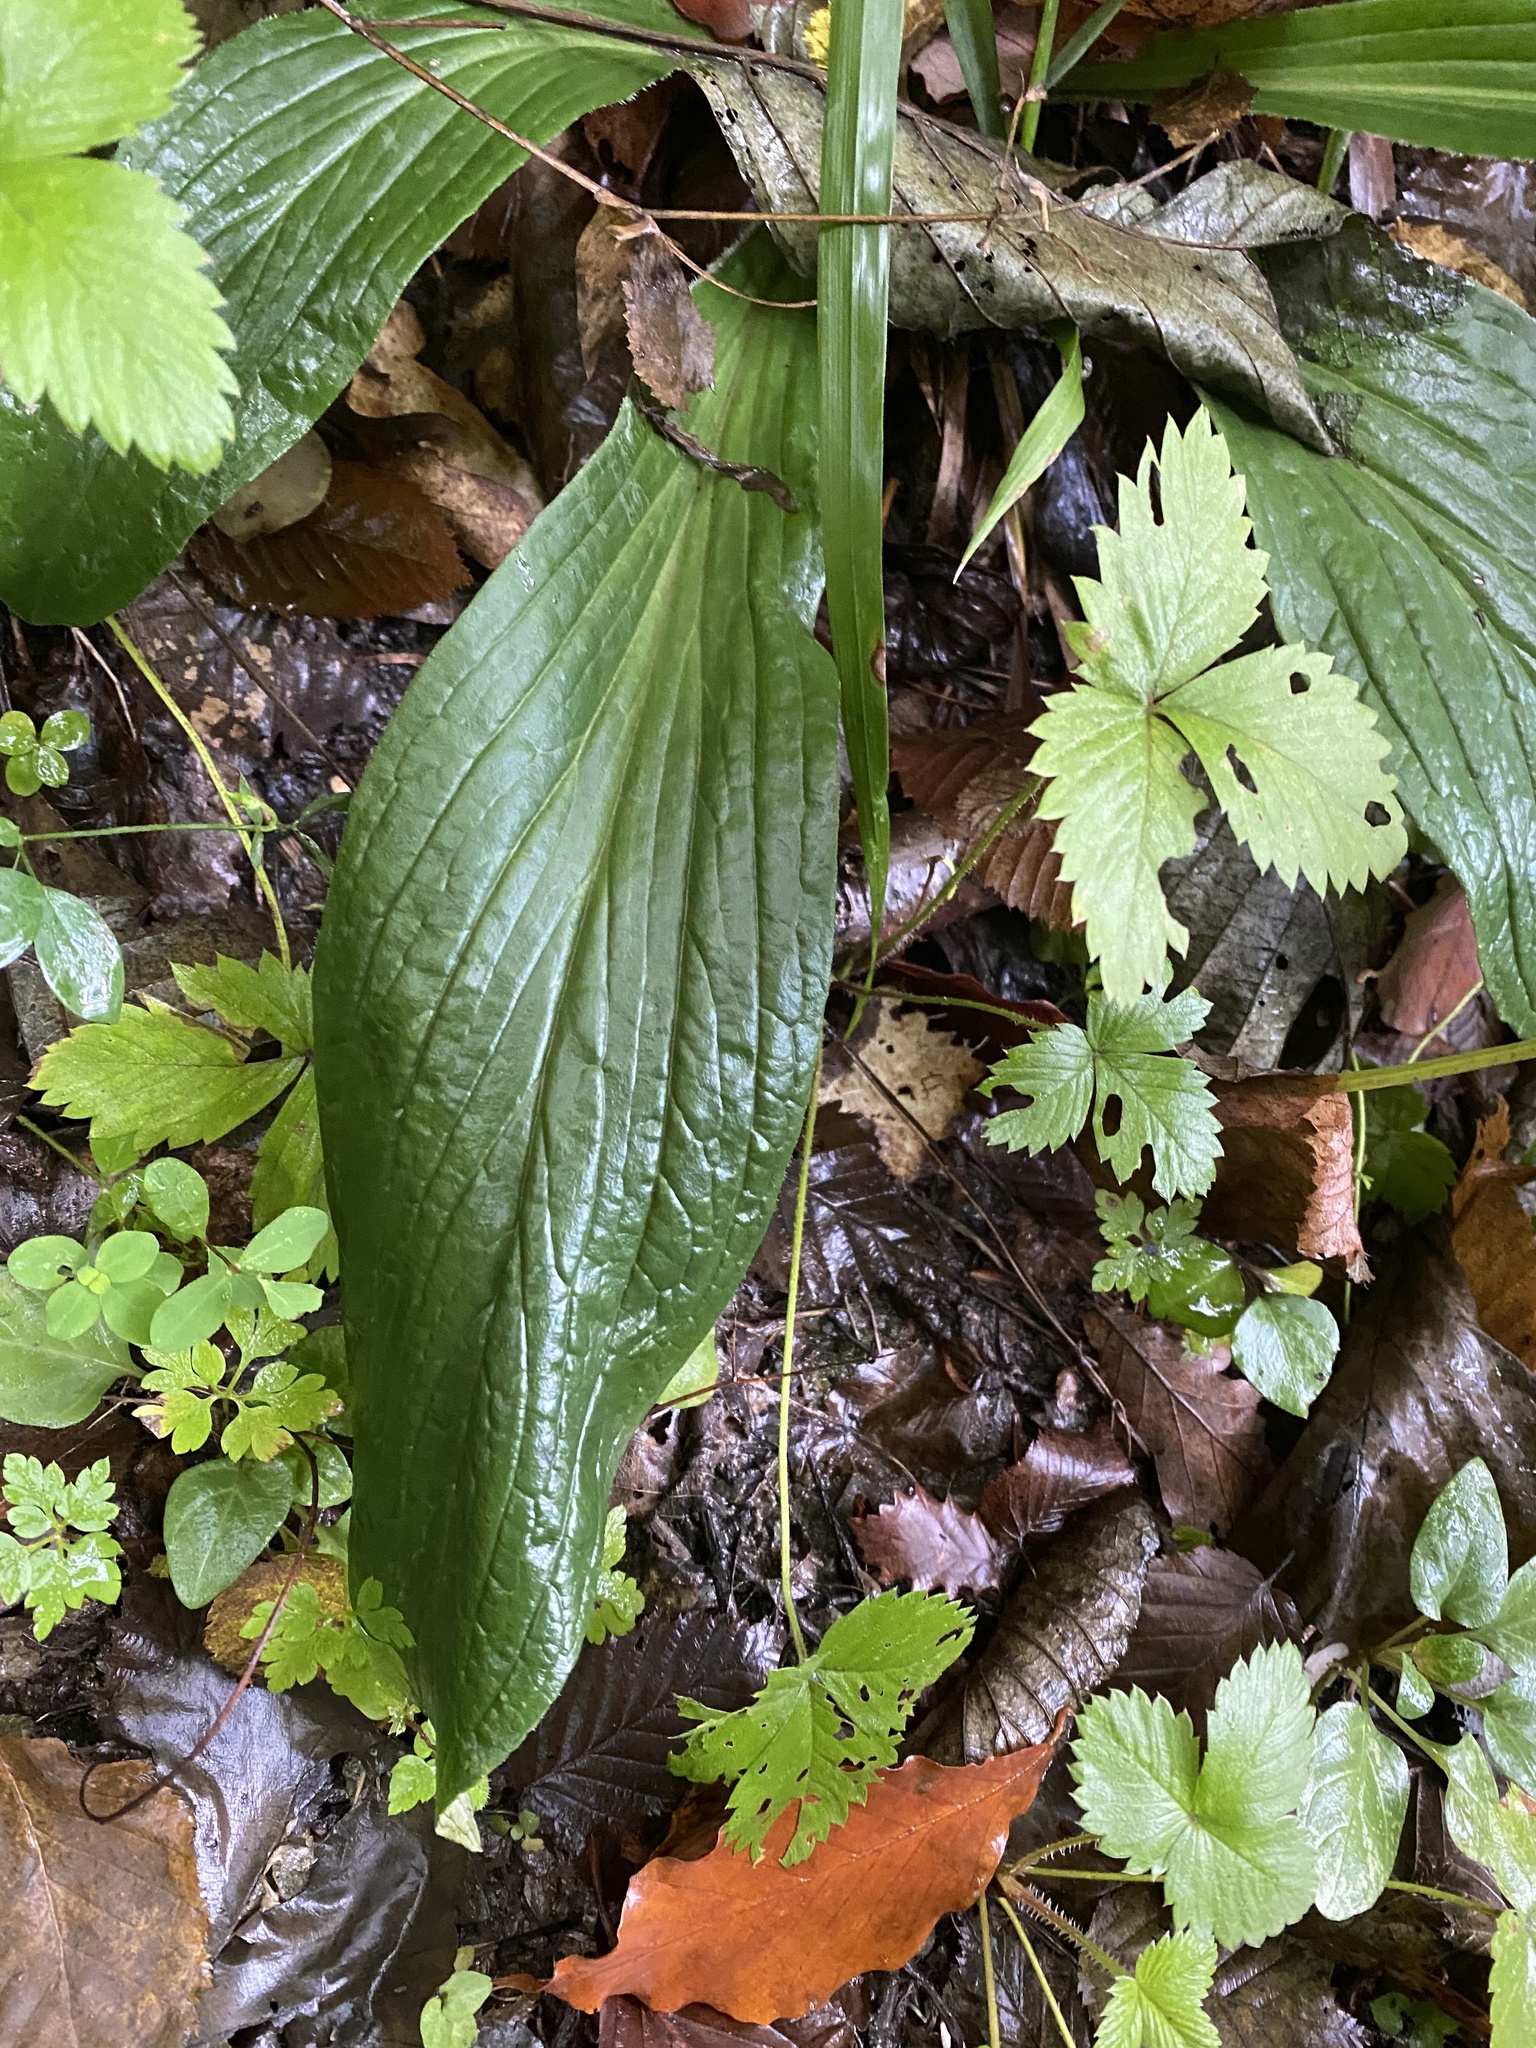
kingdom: Plantae
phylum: Tracheophyta
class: Magnoliopsida
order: Lamiales
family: Plantaginaceae
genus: Digitalis
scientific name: Digitalis
